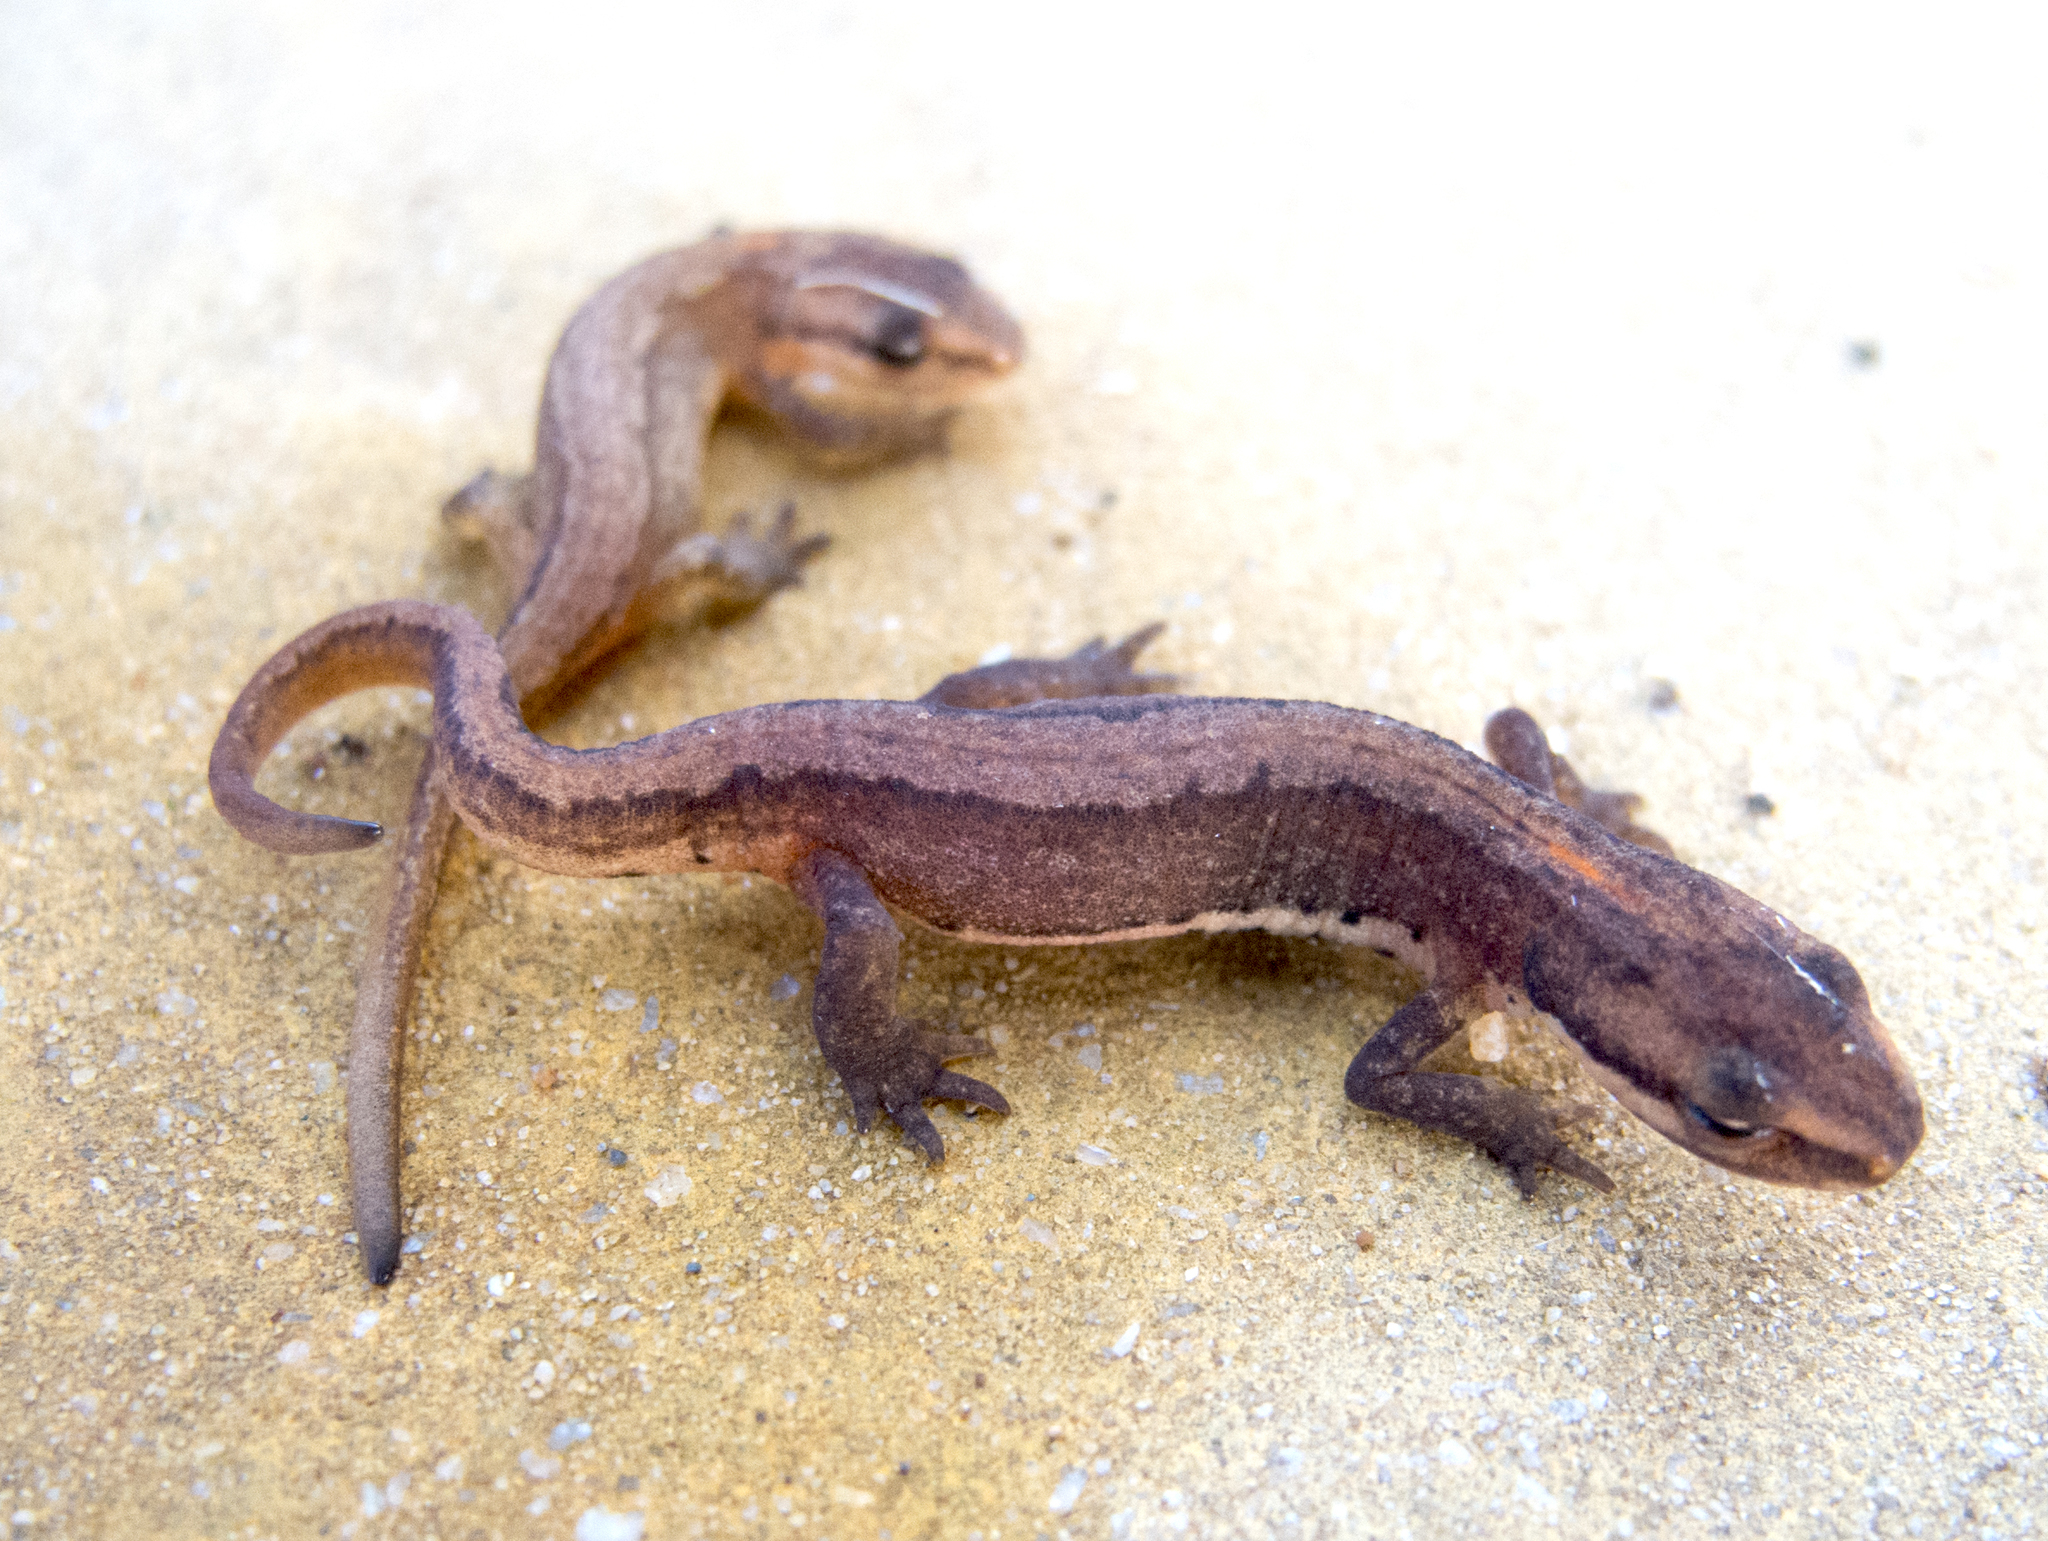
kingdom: Animalia
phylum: Chordata
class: Amphibia
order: Caudata
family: Salamandridae
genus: Lissotriton
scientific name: Lissotriton schmidtleri
